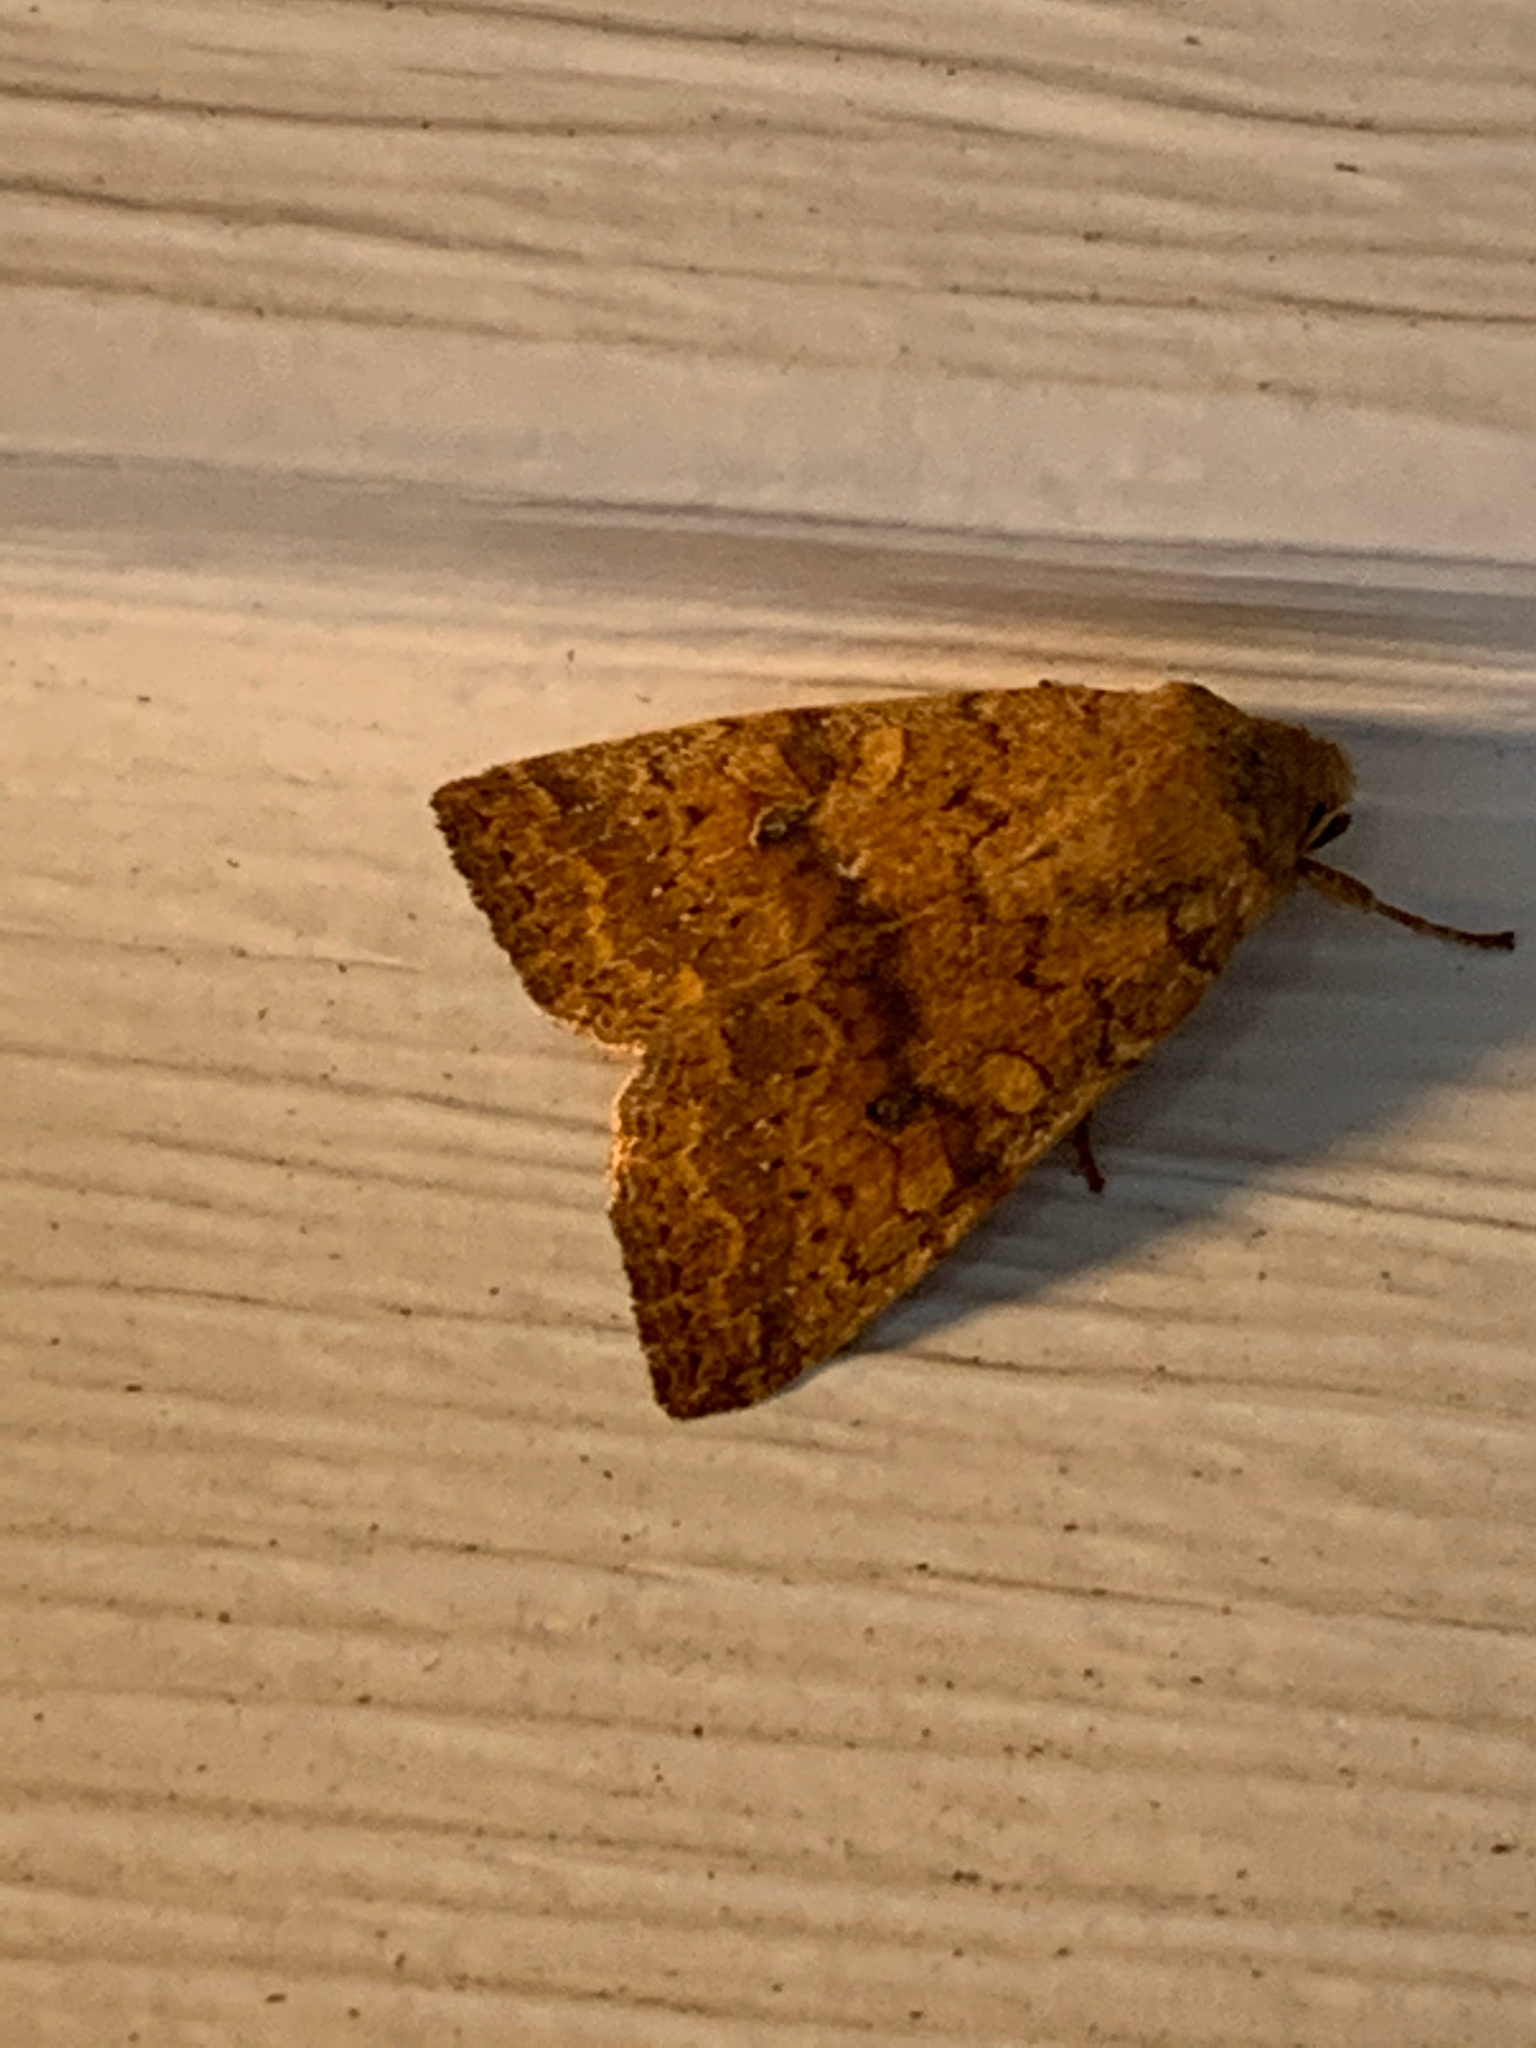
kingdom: Animalia
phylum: Arthropoda
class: Insecta
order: Lepidoptera
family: Noctuidae
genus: Agrochola
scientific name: Agrochola bicolorago
